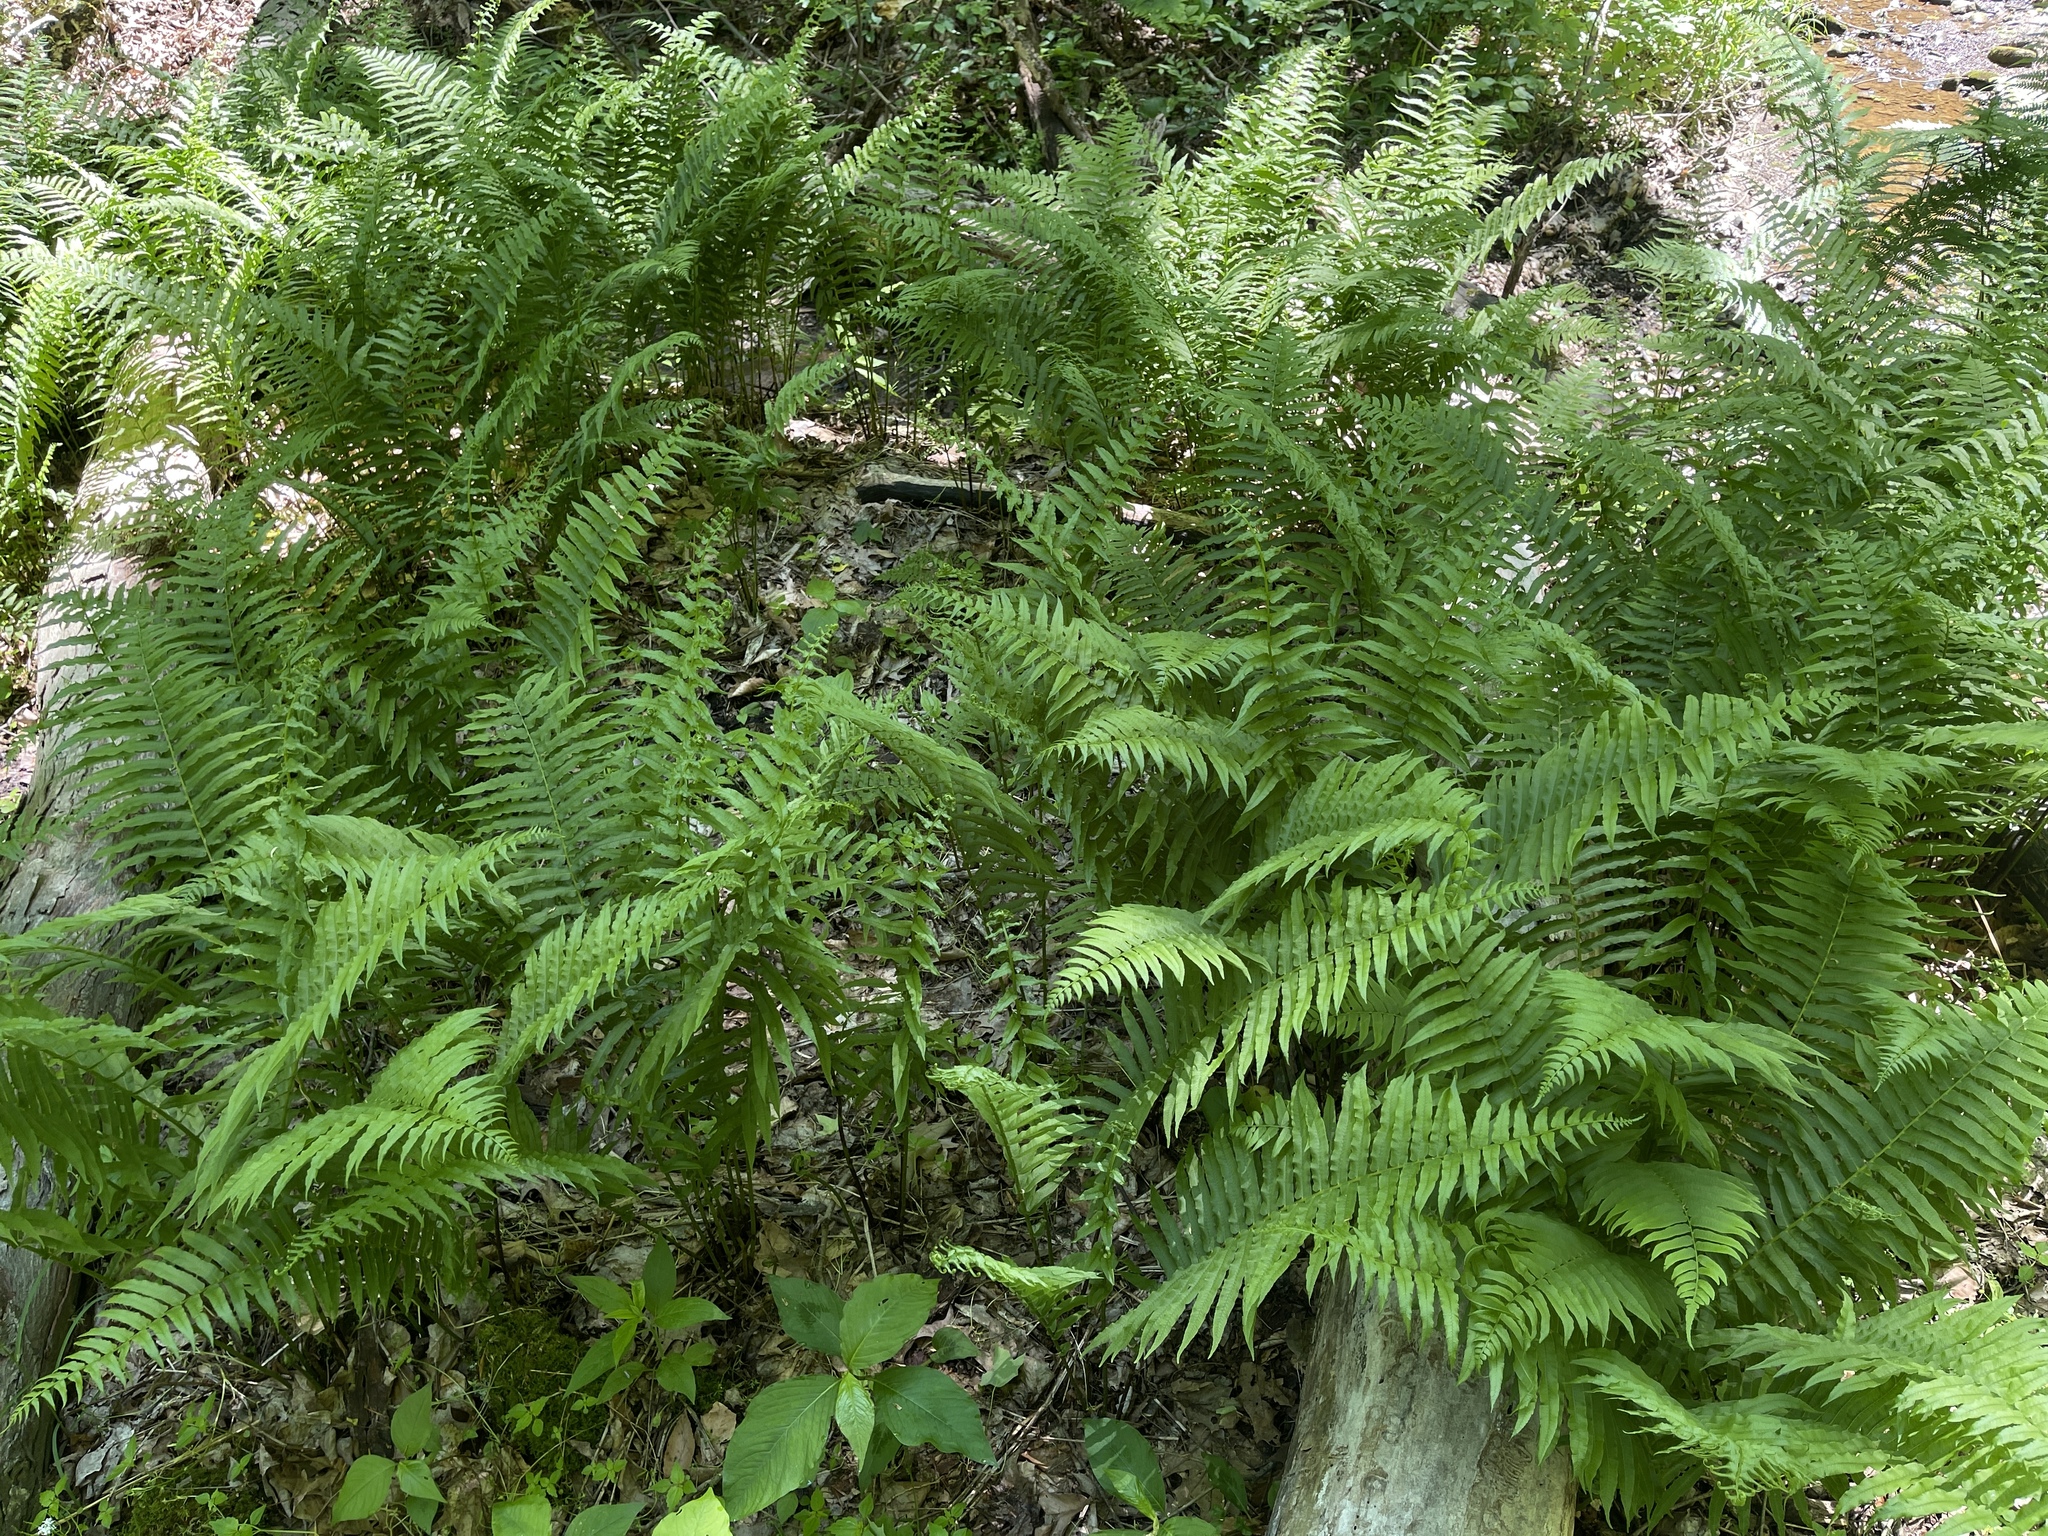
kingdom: Plantae
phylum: Tracheophyta
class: Polypodiopsida
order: Polypodiales
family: Diplaziopsidaceae
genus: Homalosorus
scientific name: Homalosorus pycnocarpos
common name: Glade fern
